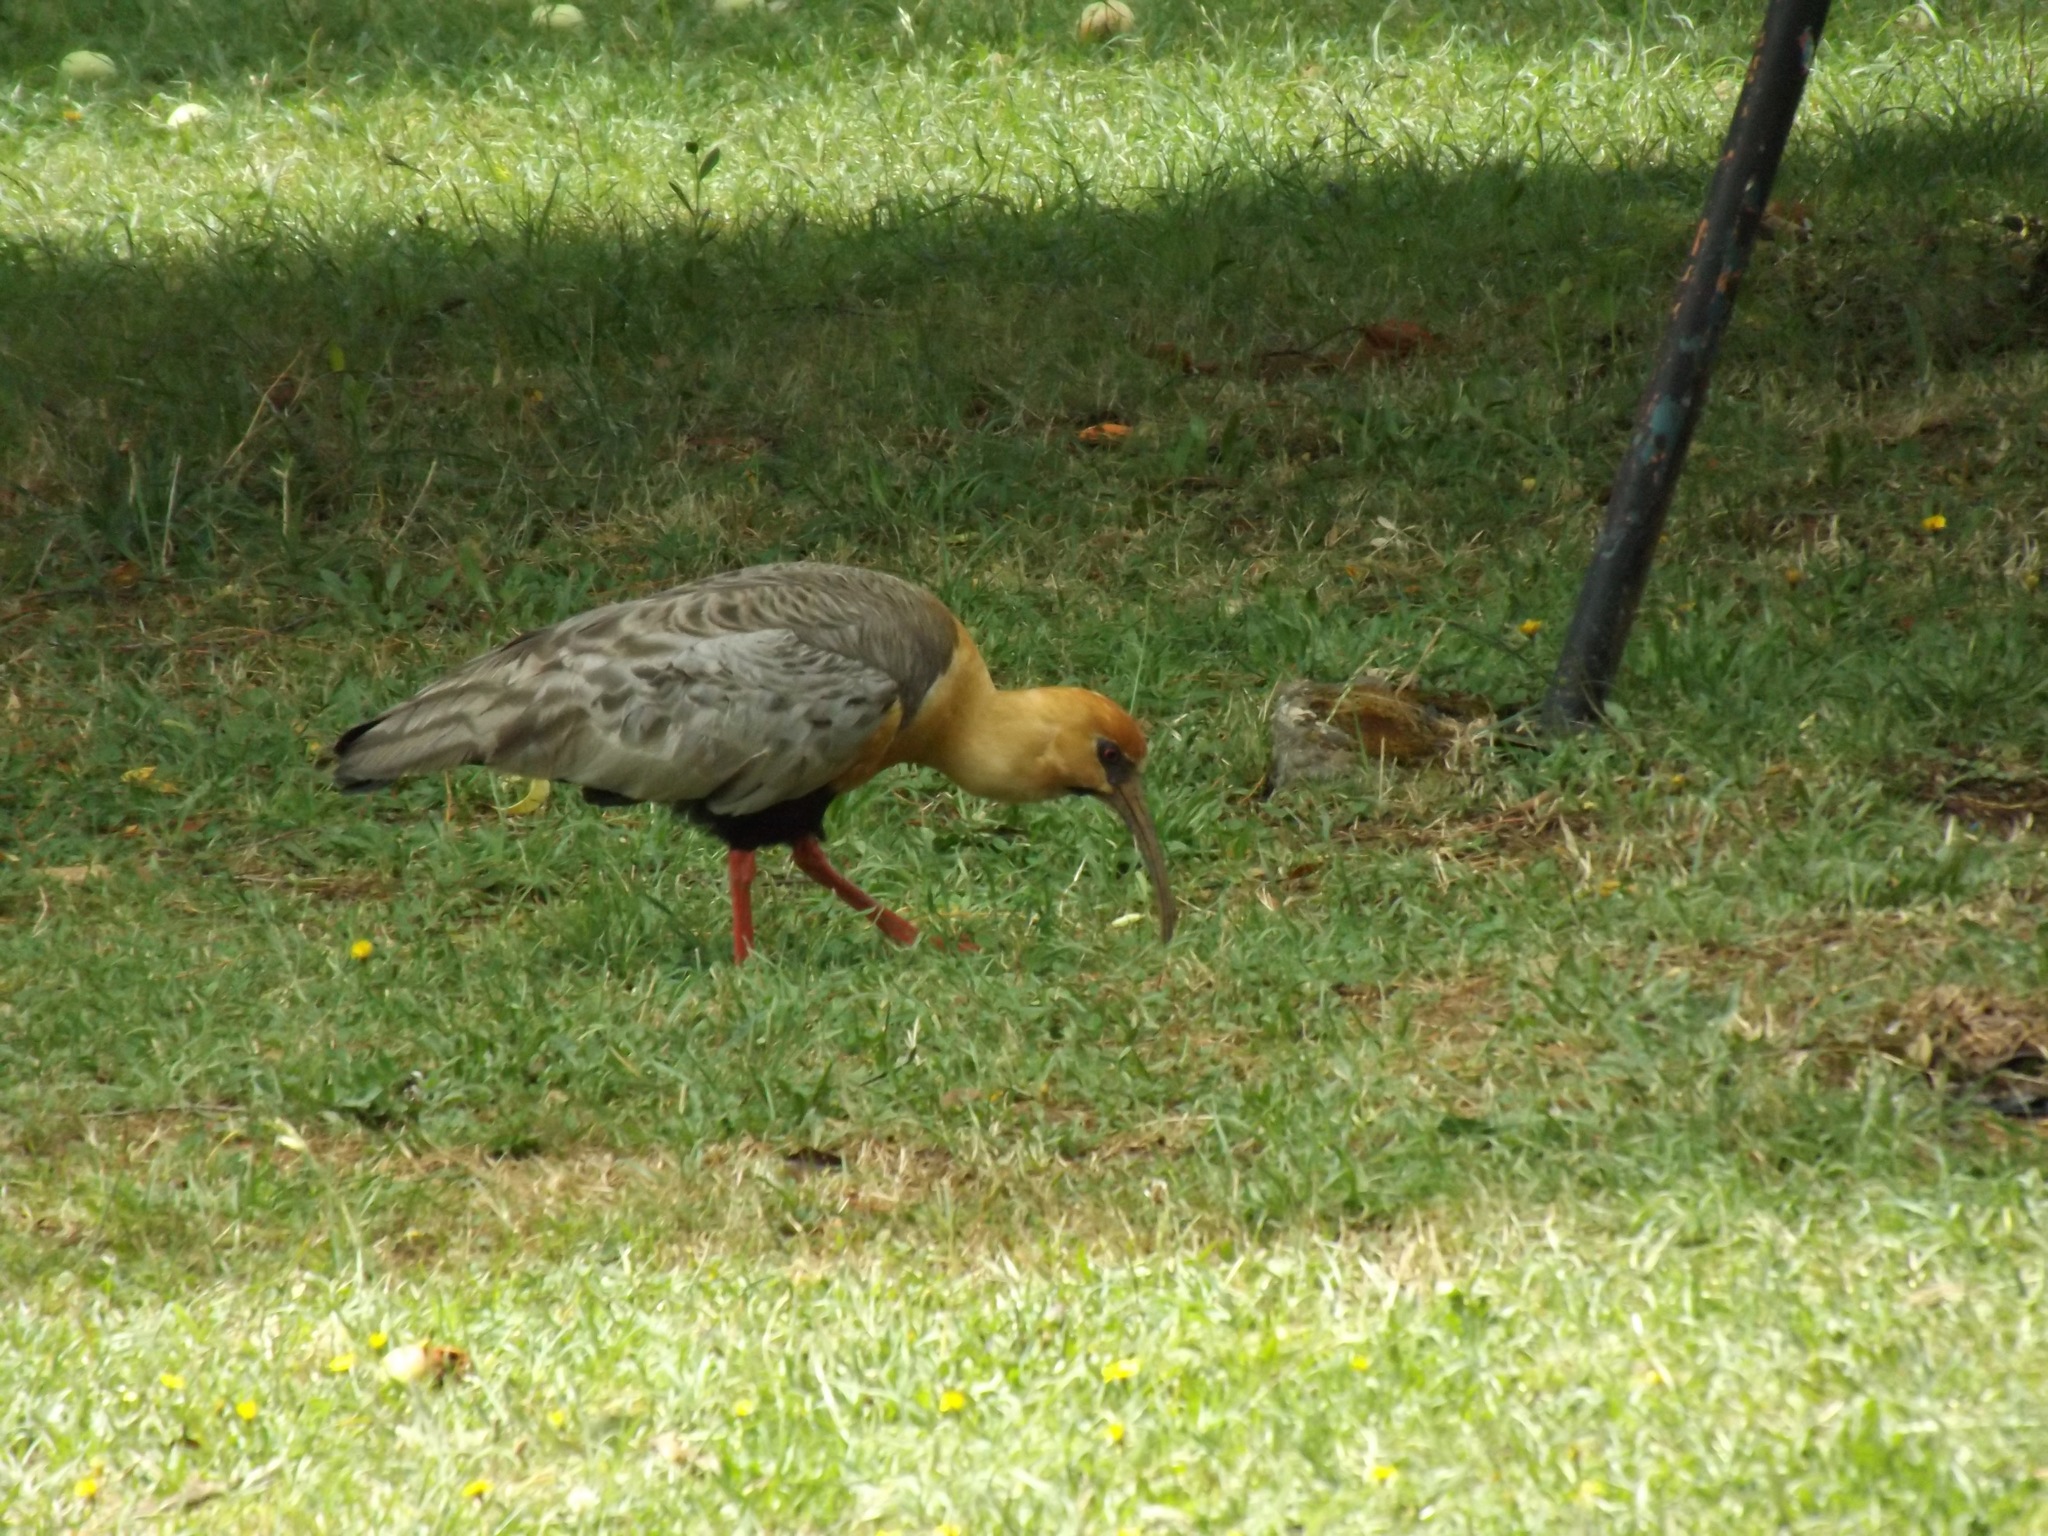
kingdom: Animalia
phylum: Chordata
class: Aves
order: Pelecaniformes
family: Threskiornithidae
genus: Theristicus
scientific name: Theristicus melanopis
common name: Black-faced ibis
